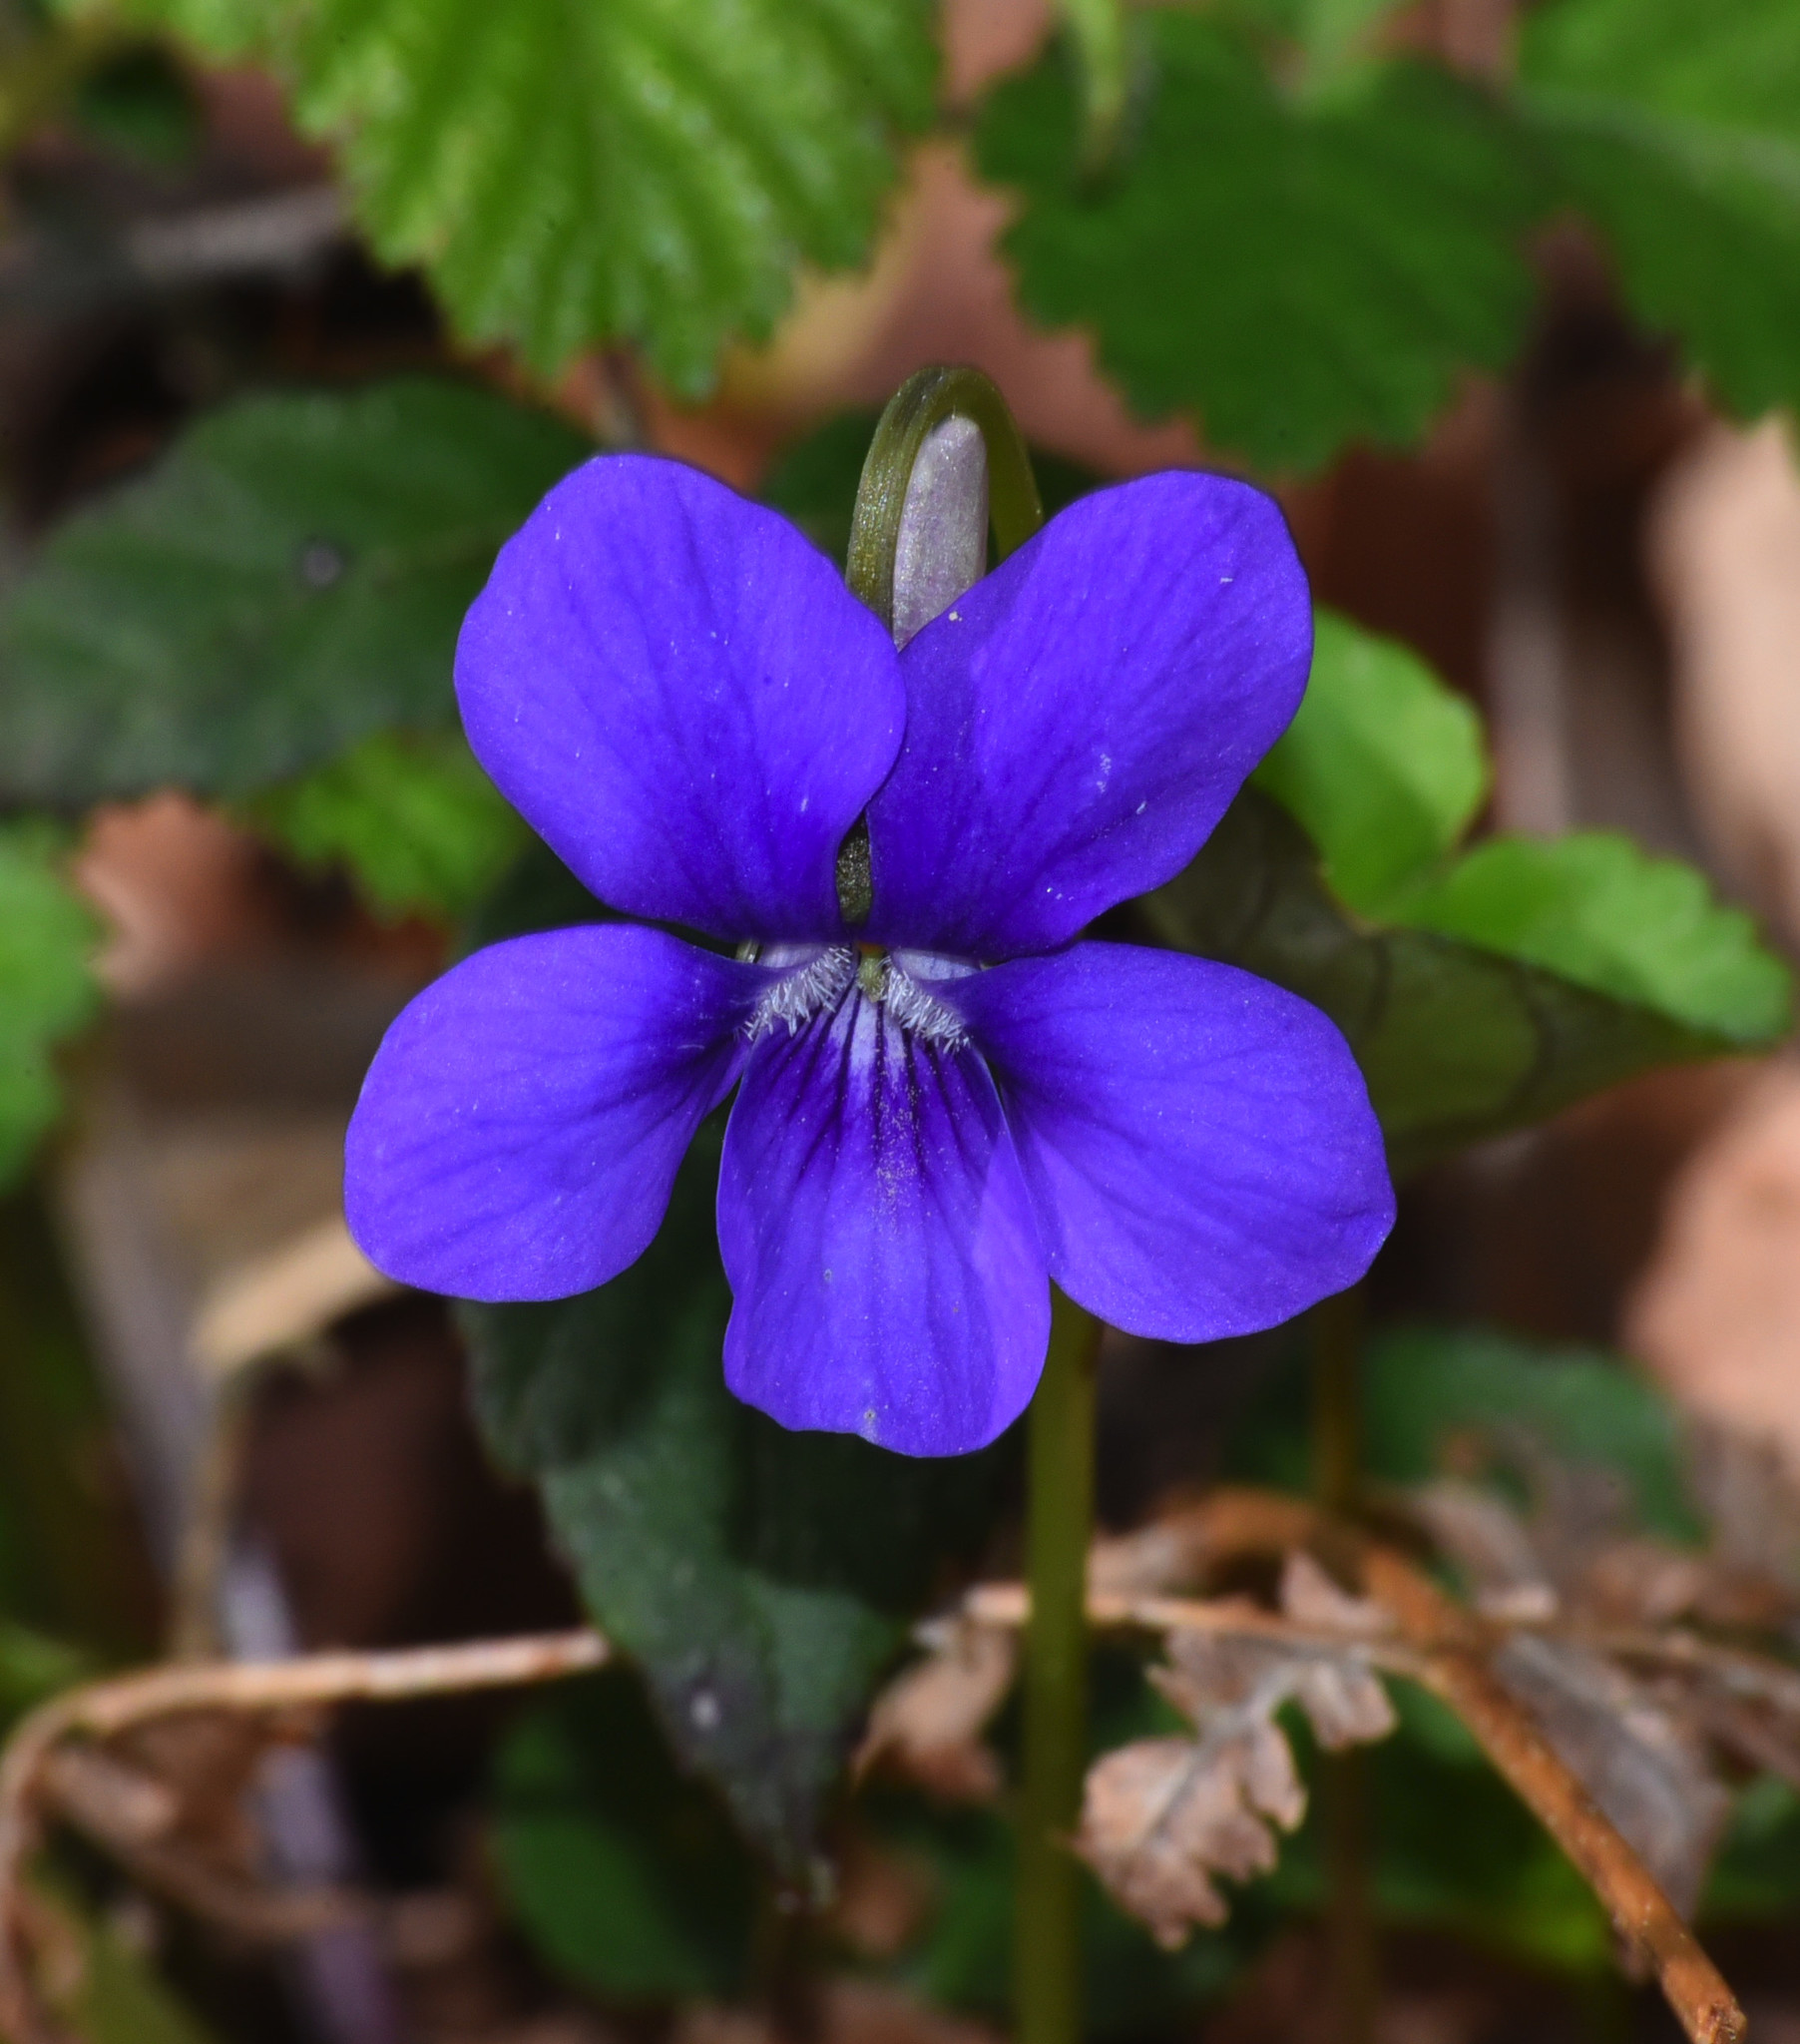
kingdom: Plantae
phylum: Tracheophyta
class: Magnoliopsida
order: Malpighiales
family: Violaceae
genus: Viola
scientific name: Viola riviniana
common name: Common dog-violet
